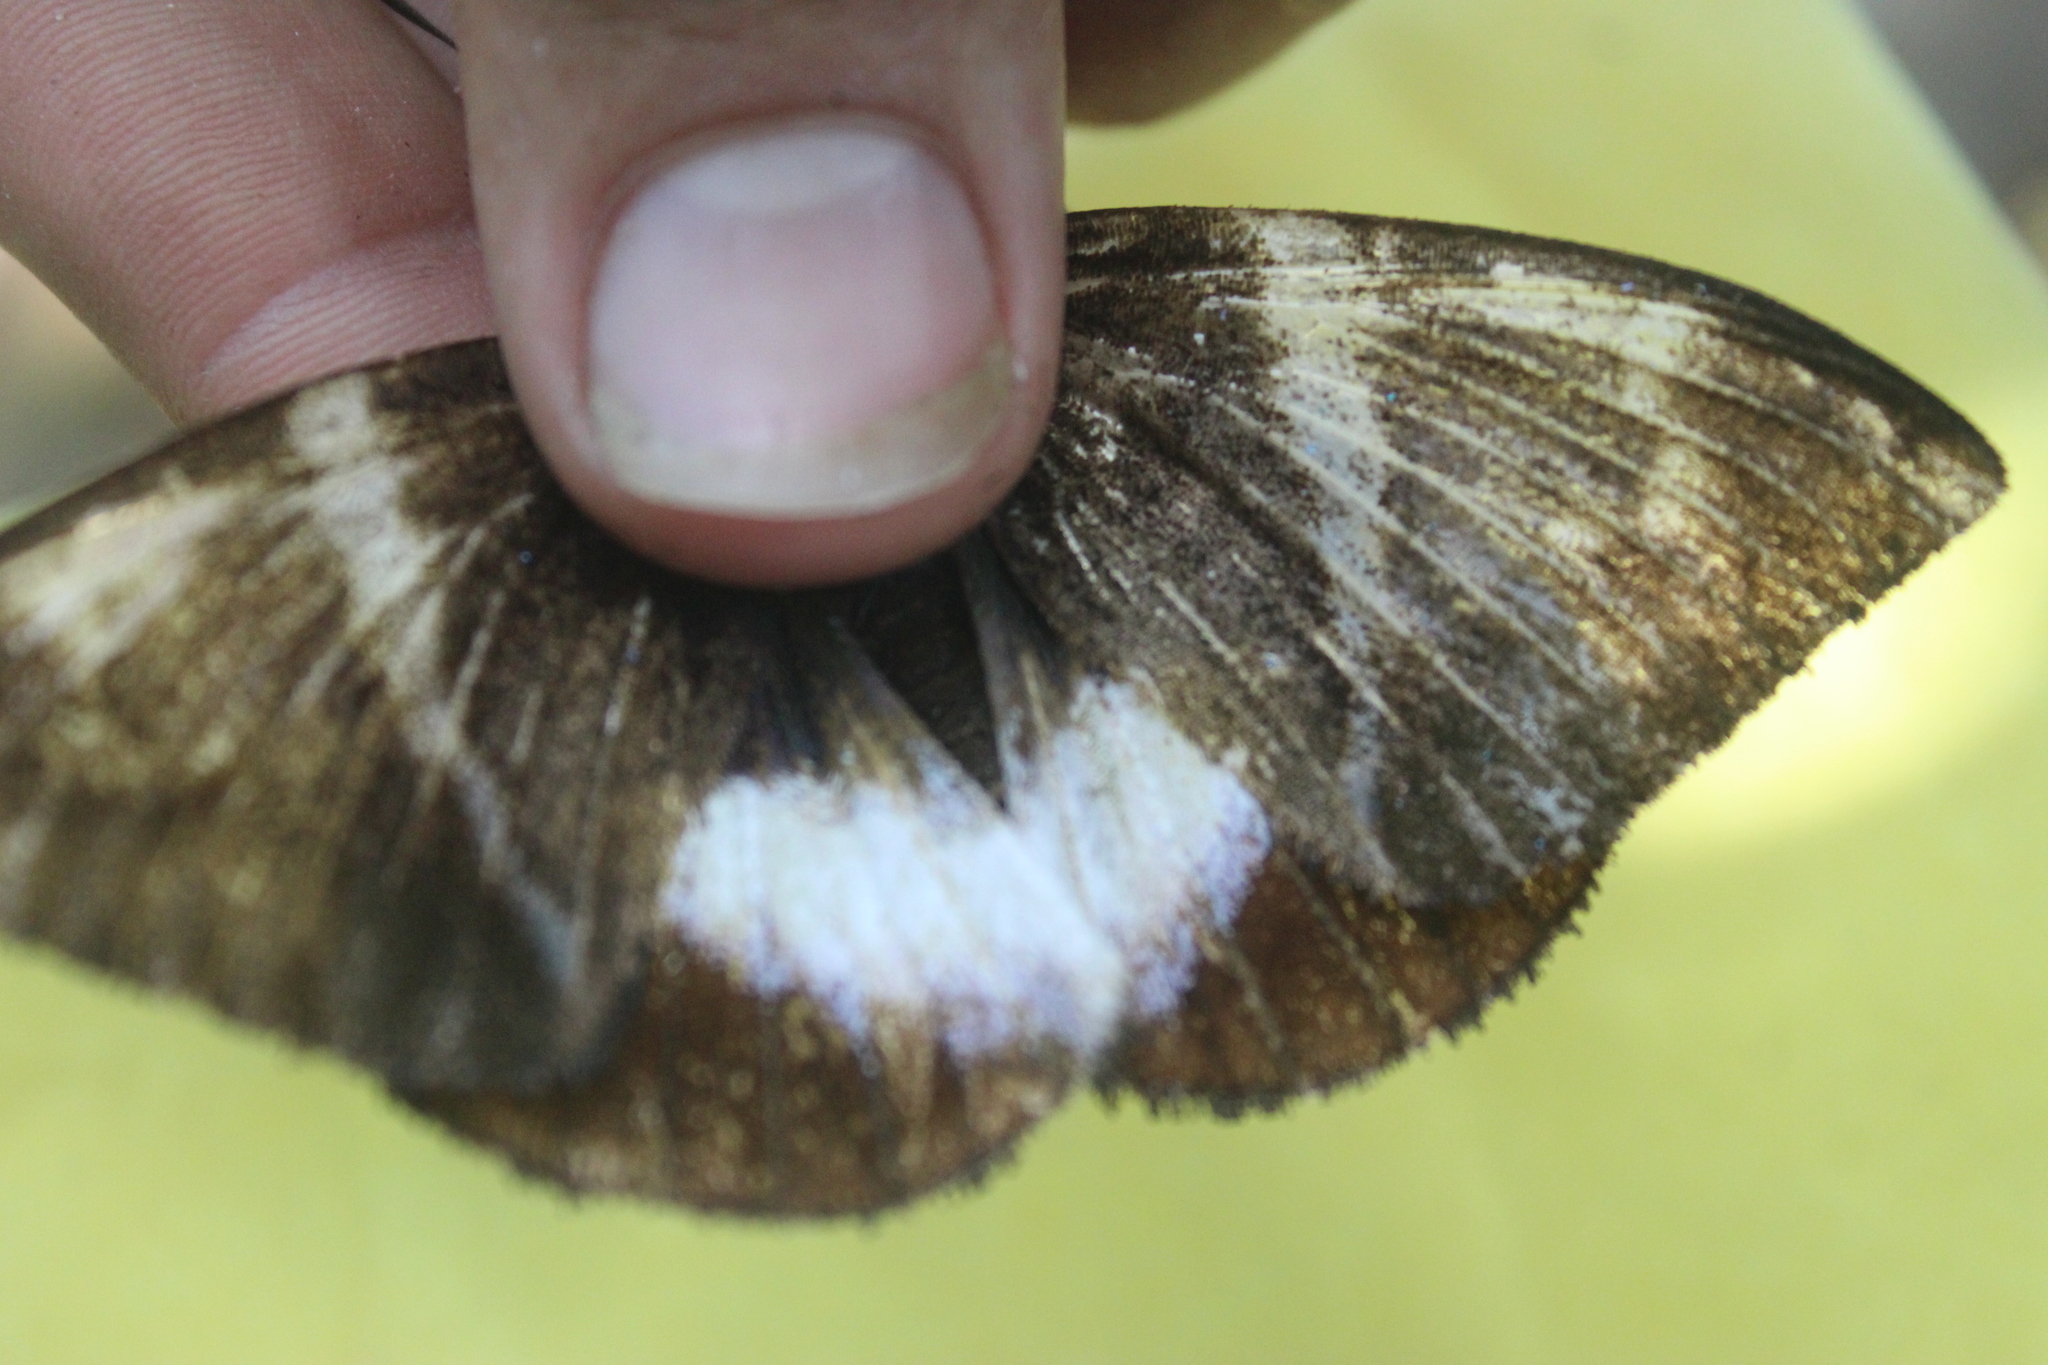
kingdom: Animalia
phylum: Arthropoda
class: Insecta
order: Lepidoptera
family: Castniidae
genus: Castniomera
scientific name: Castniomera atymnius
